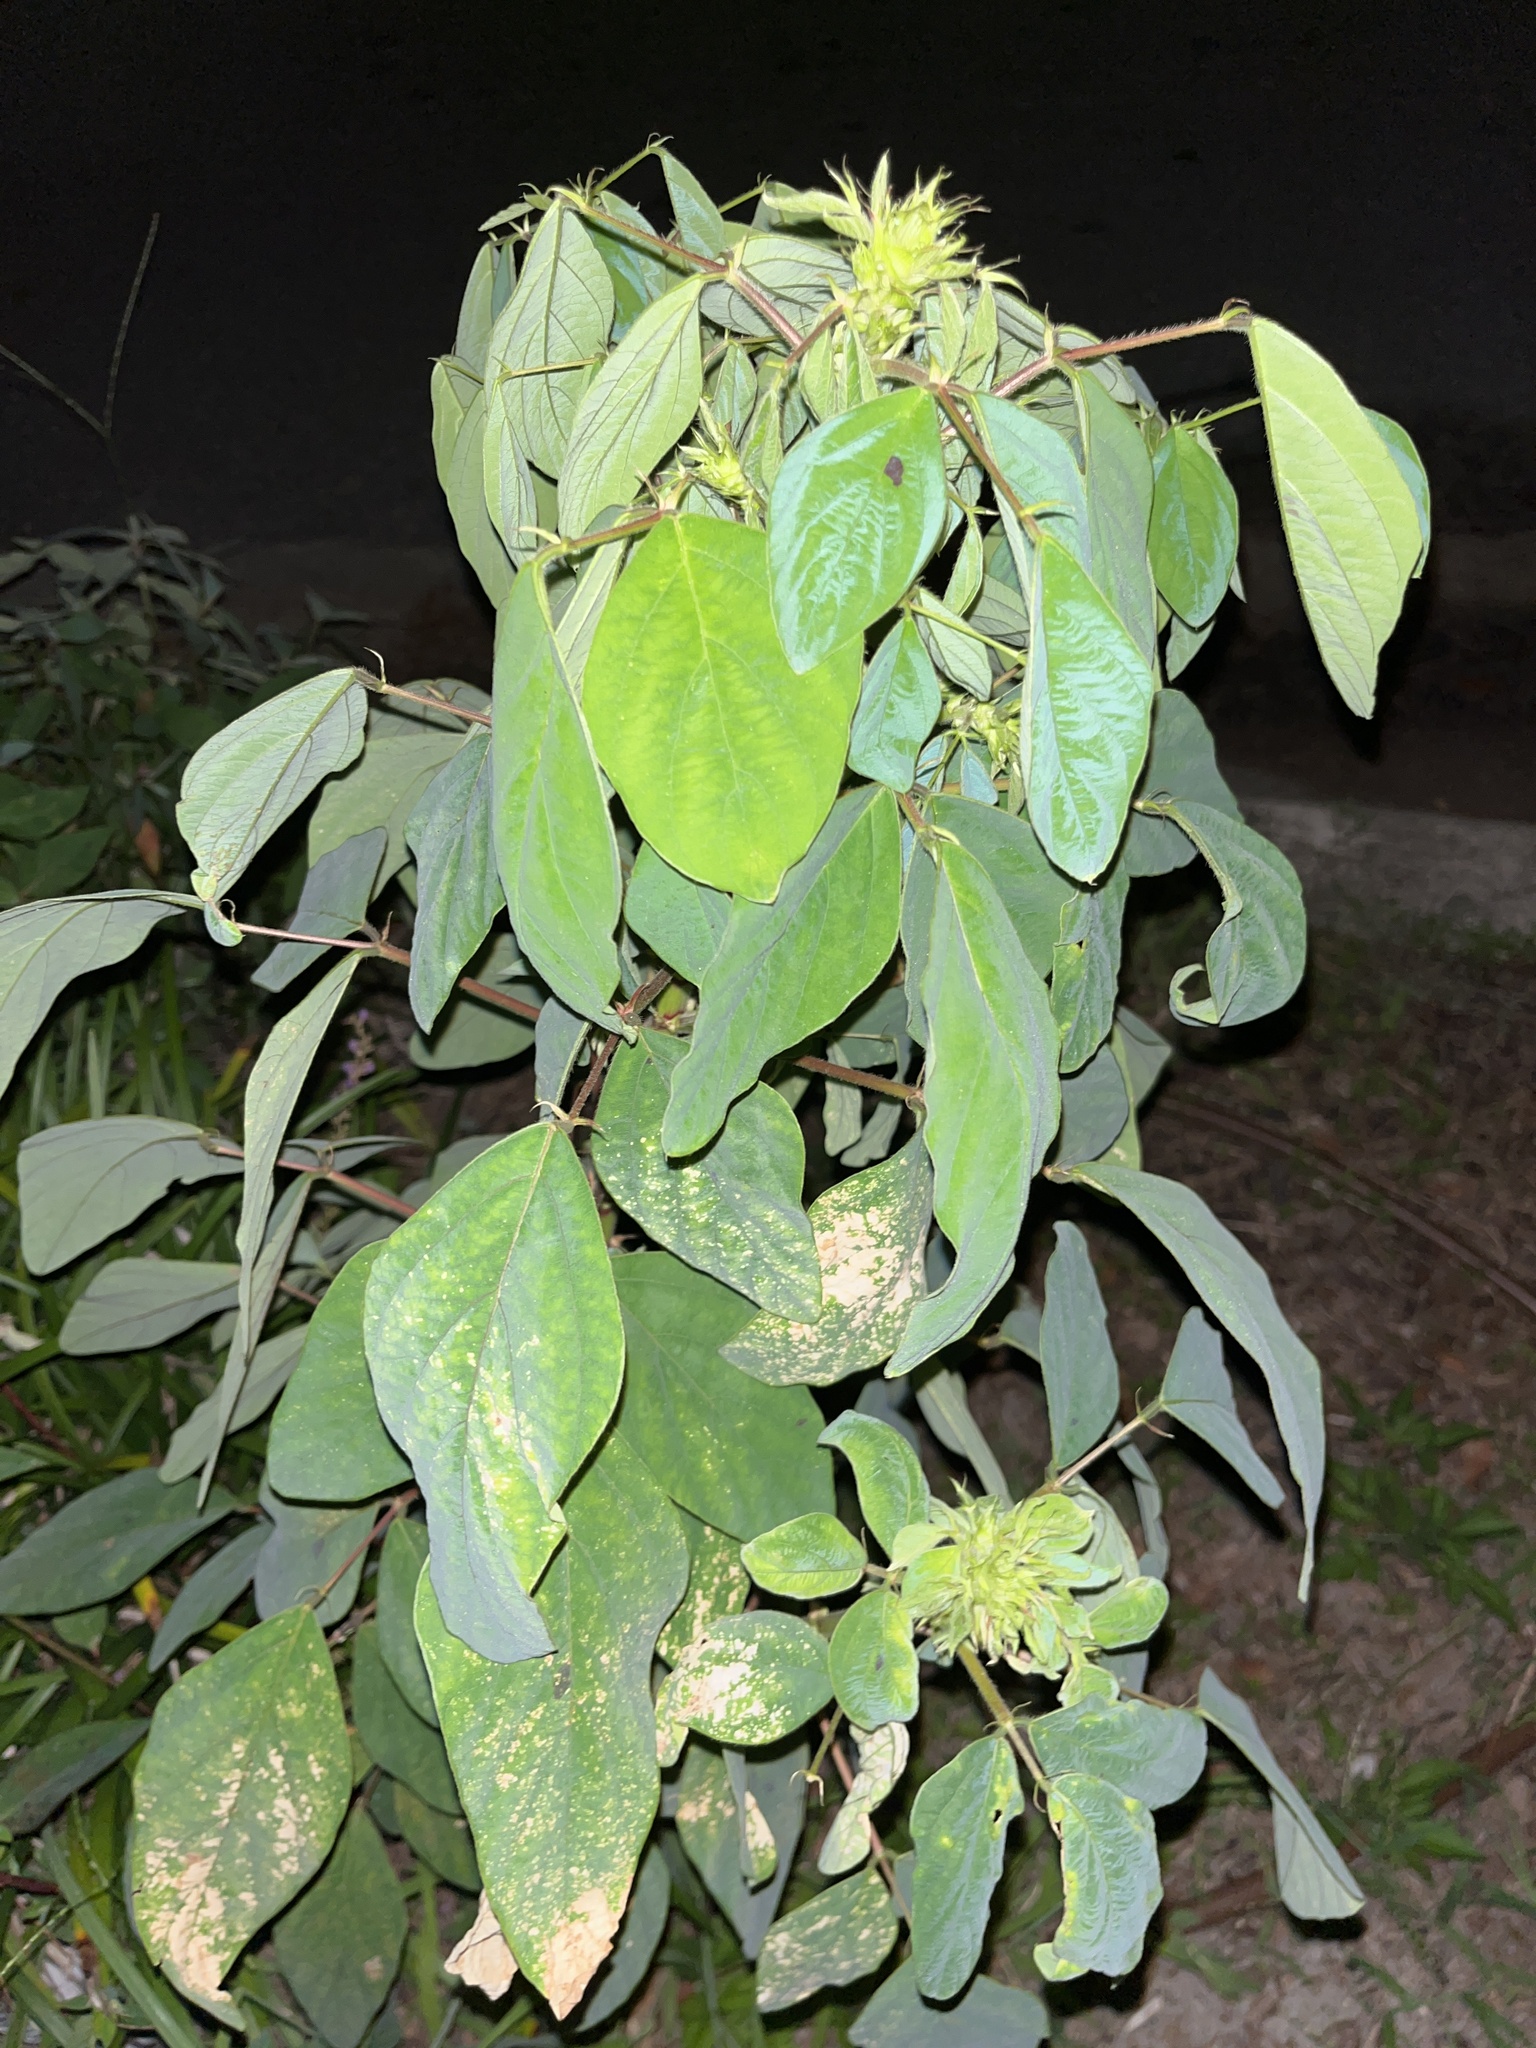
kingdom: Plantae
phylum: Tracheophyta
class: Magnoliopsida
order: Fabales
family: Fabaceae
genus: Desmodium
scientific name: Desmodium tortuosum
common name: Dixie ticktrefoil
